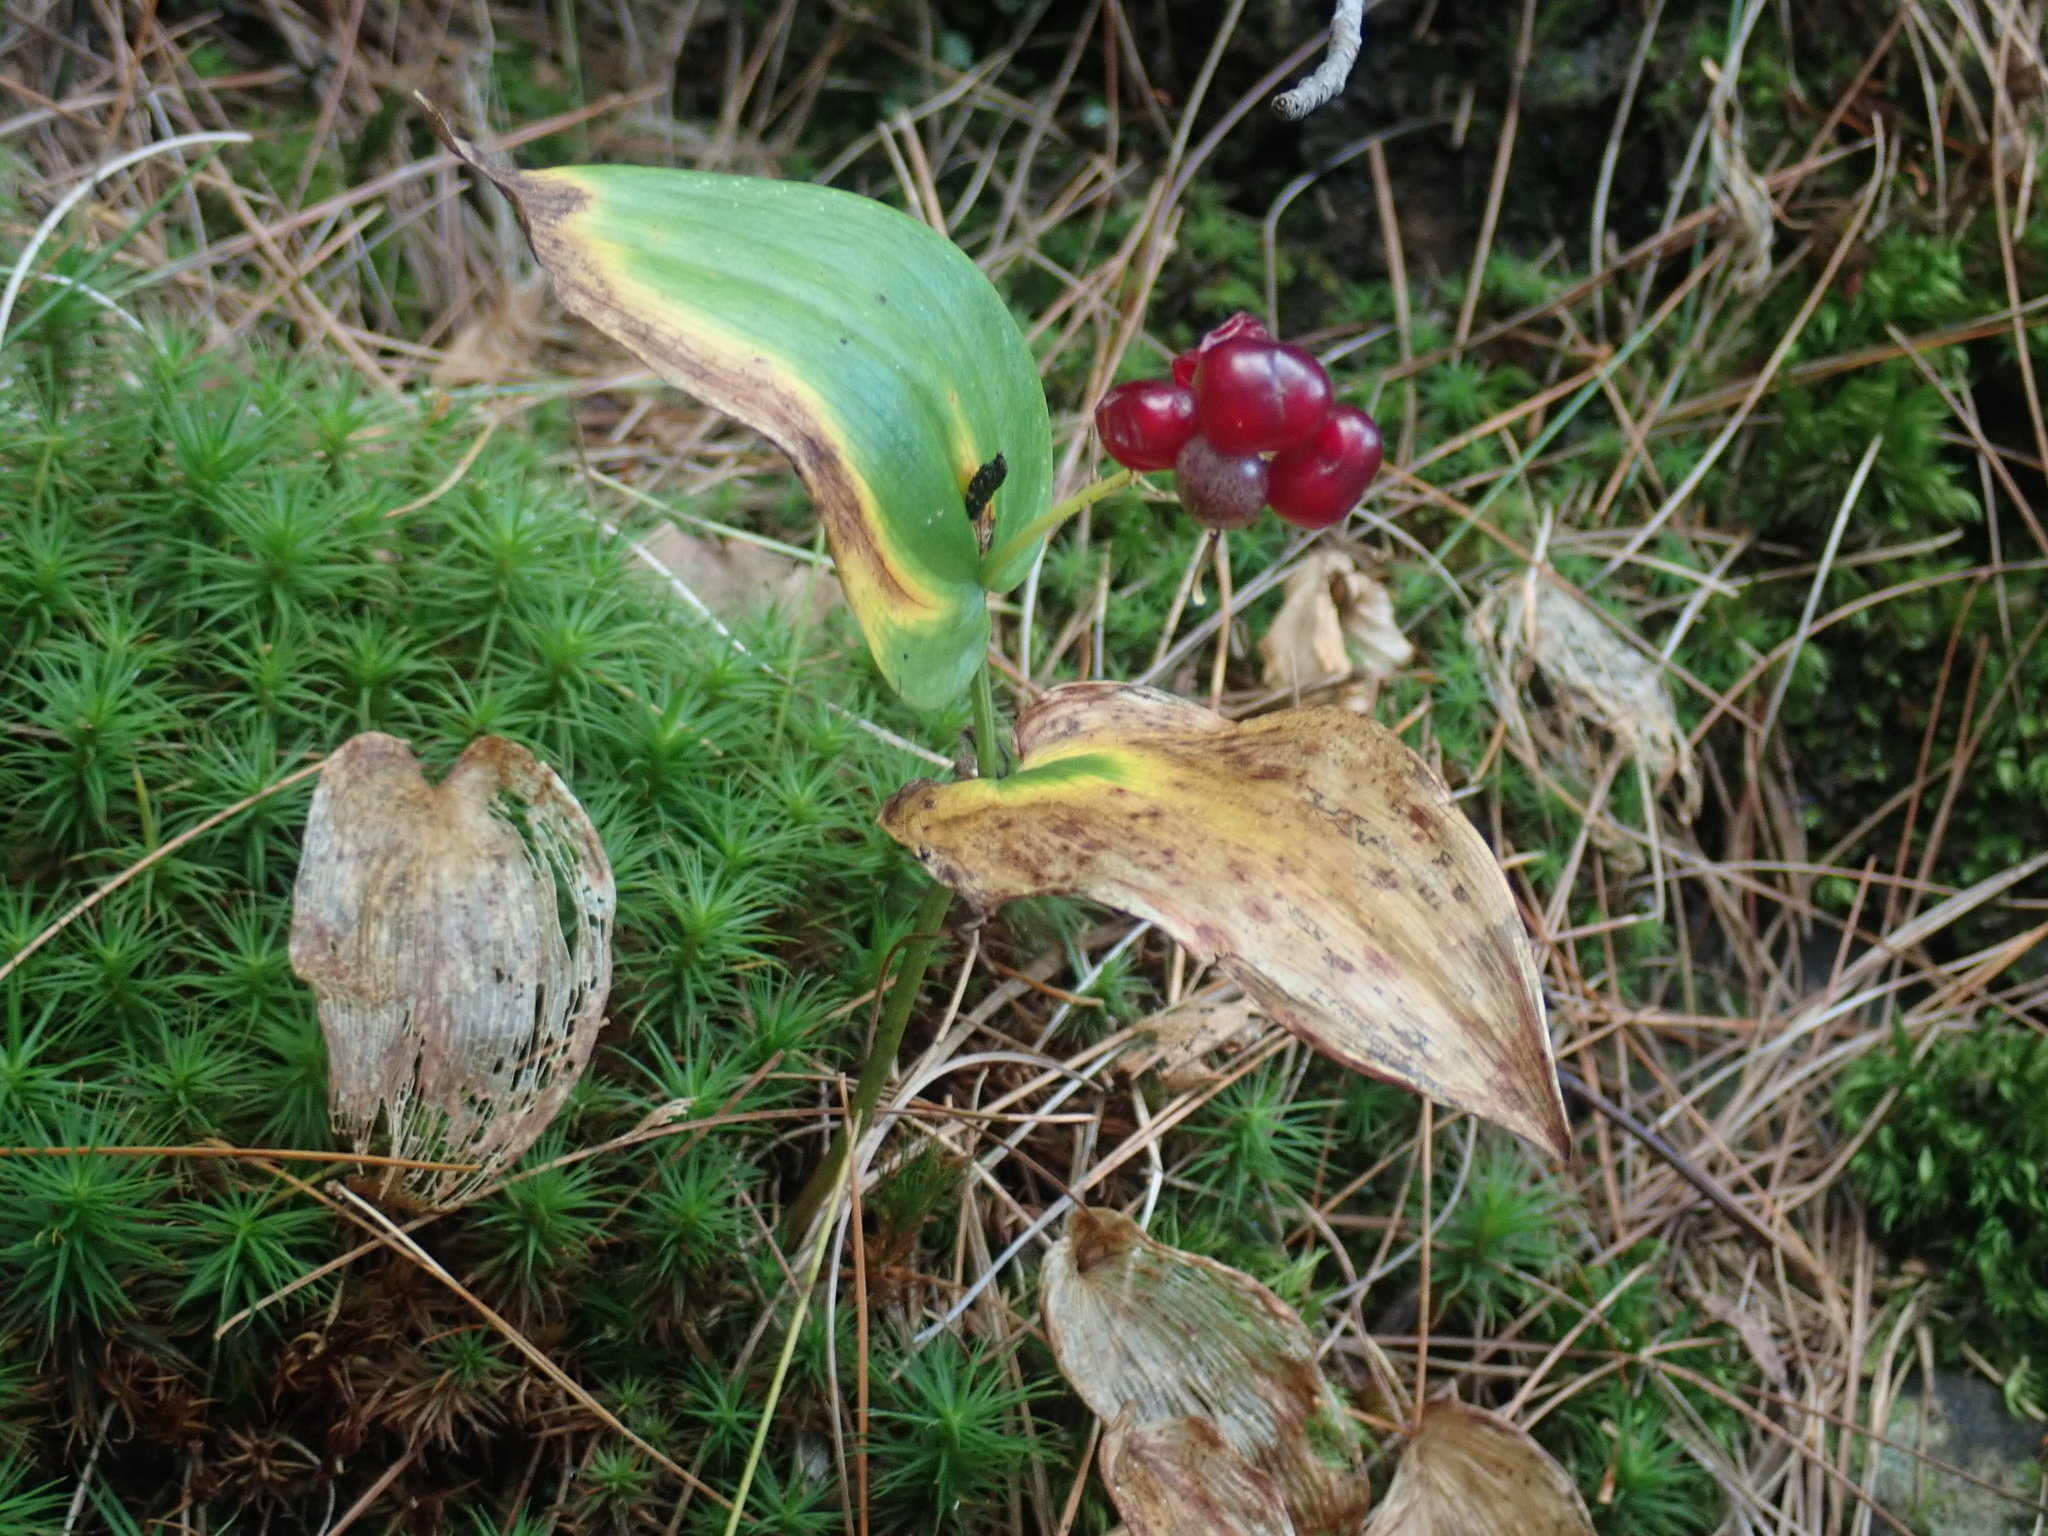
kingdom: Plantae
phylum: Tracheophyta
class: Liliopsida
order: Asparagales
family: Asparagaceae
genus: Maianthemum
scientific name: Maianthemum canadense
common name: False lily-of-the-valley
